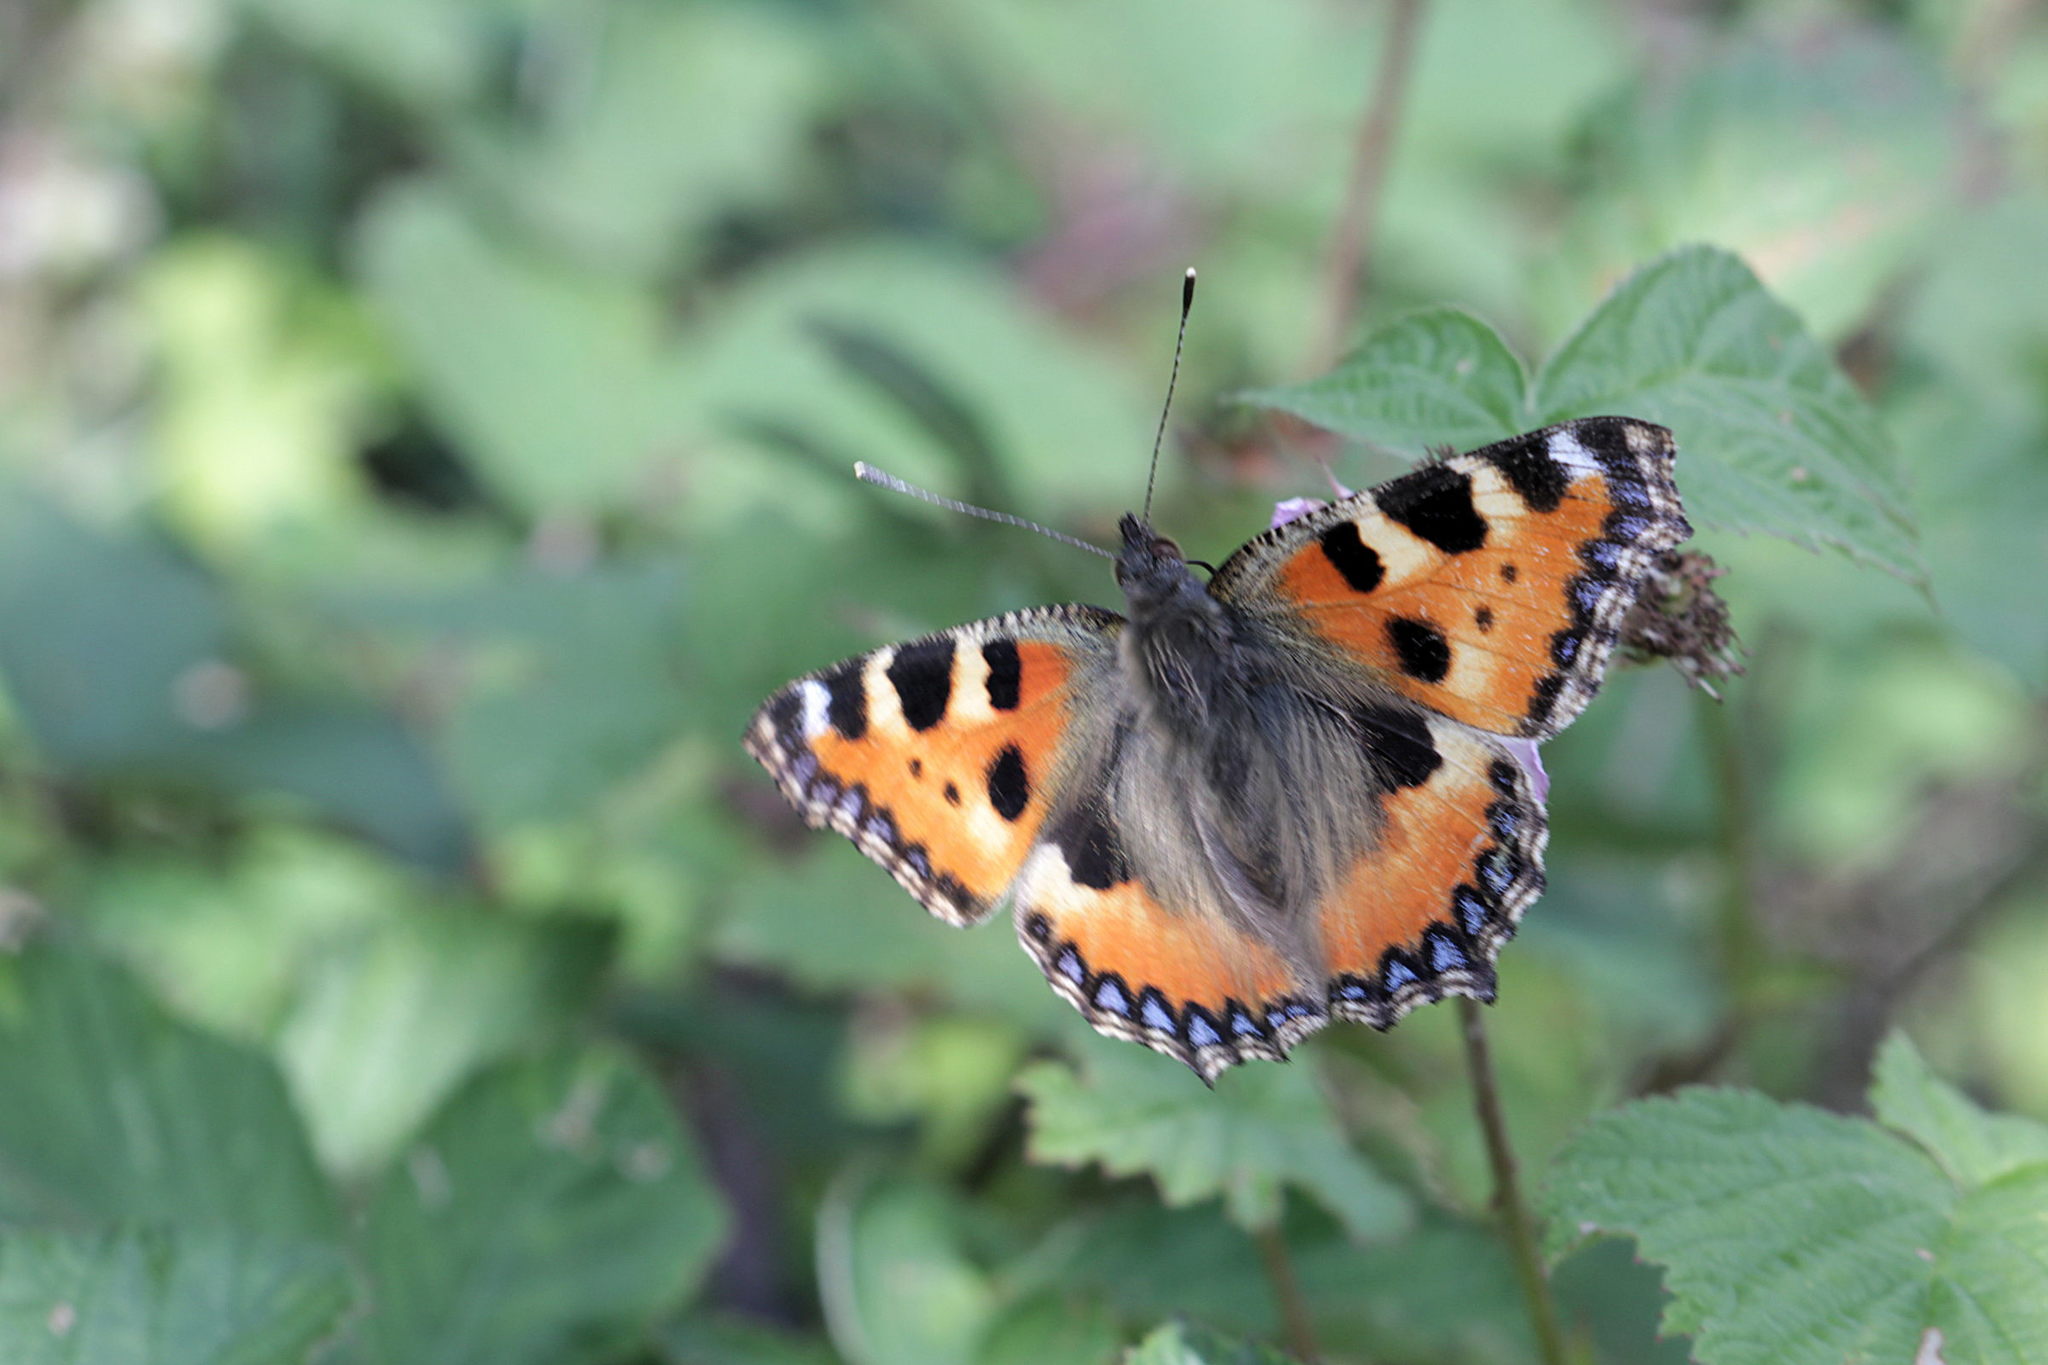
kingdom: Animalia
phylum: Arthropoda
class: Insecta
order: Lepidoptera
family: Nymphalidae
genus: Aglais
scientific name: Aglais urticae
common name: Small tortoiseshell
